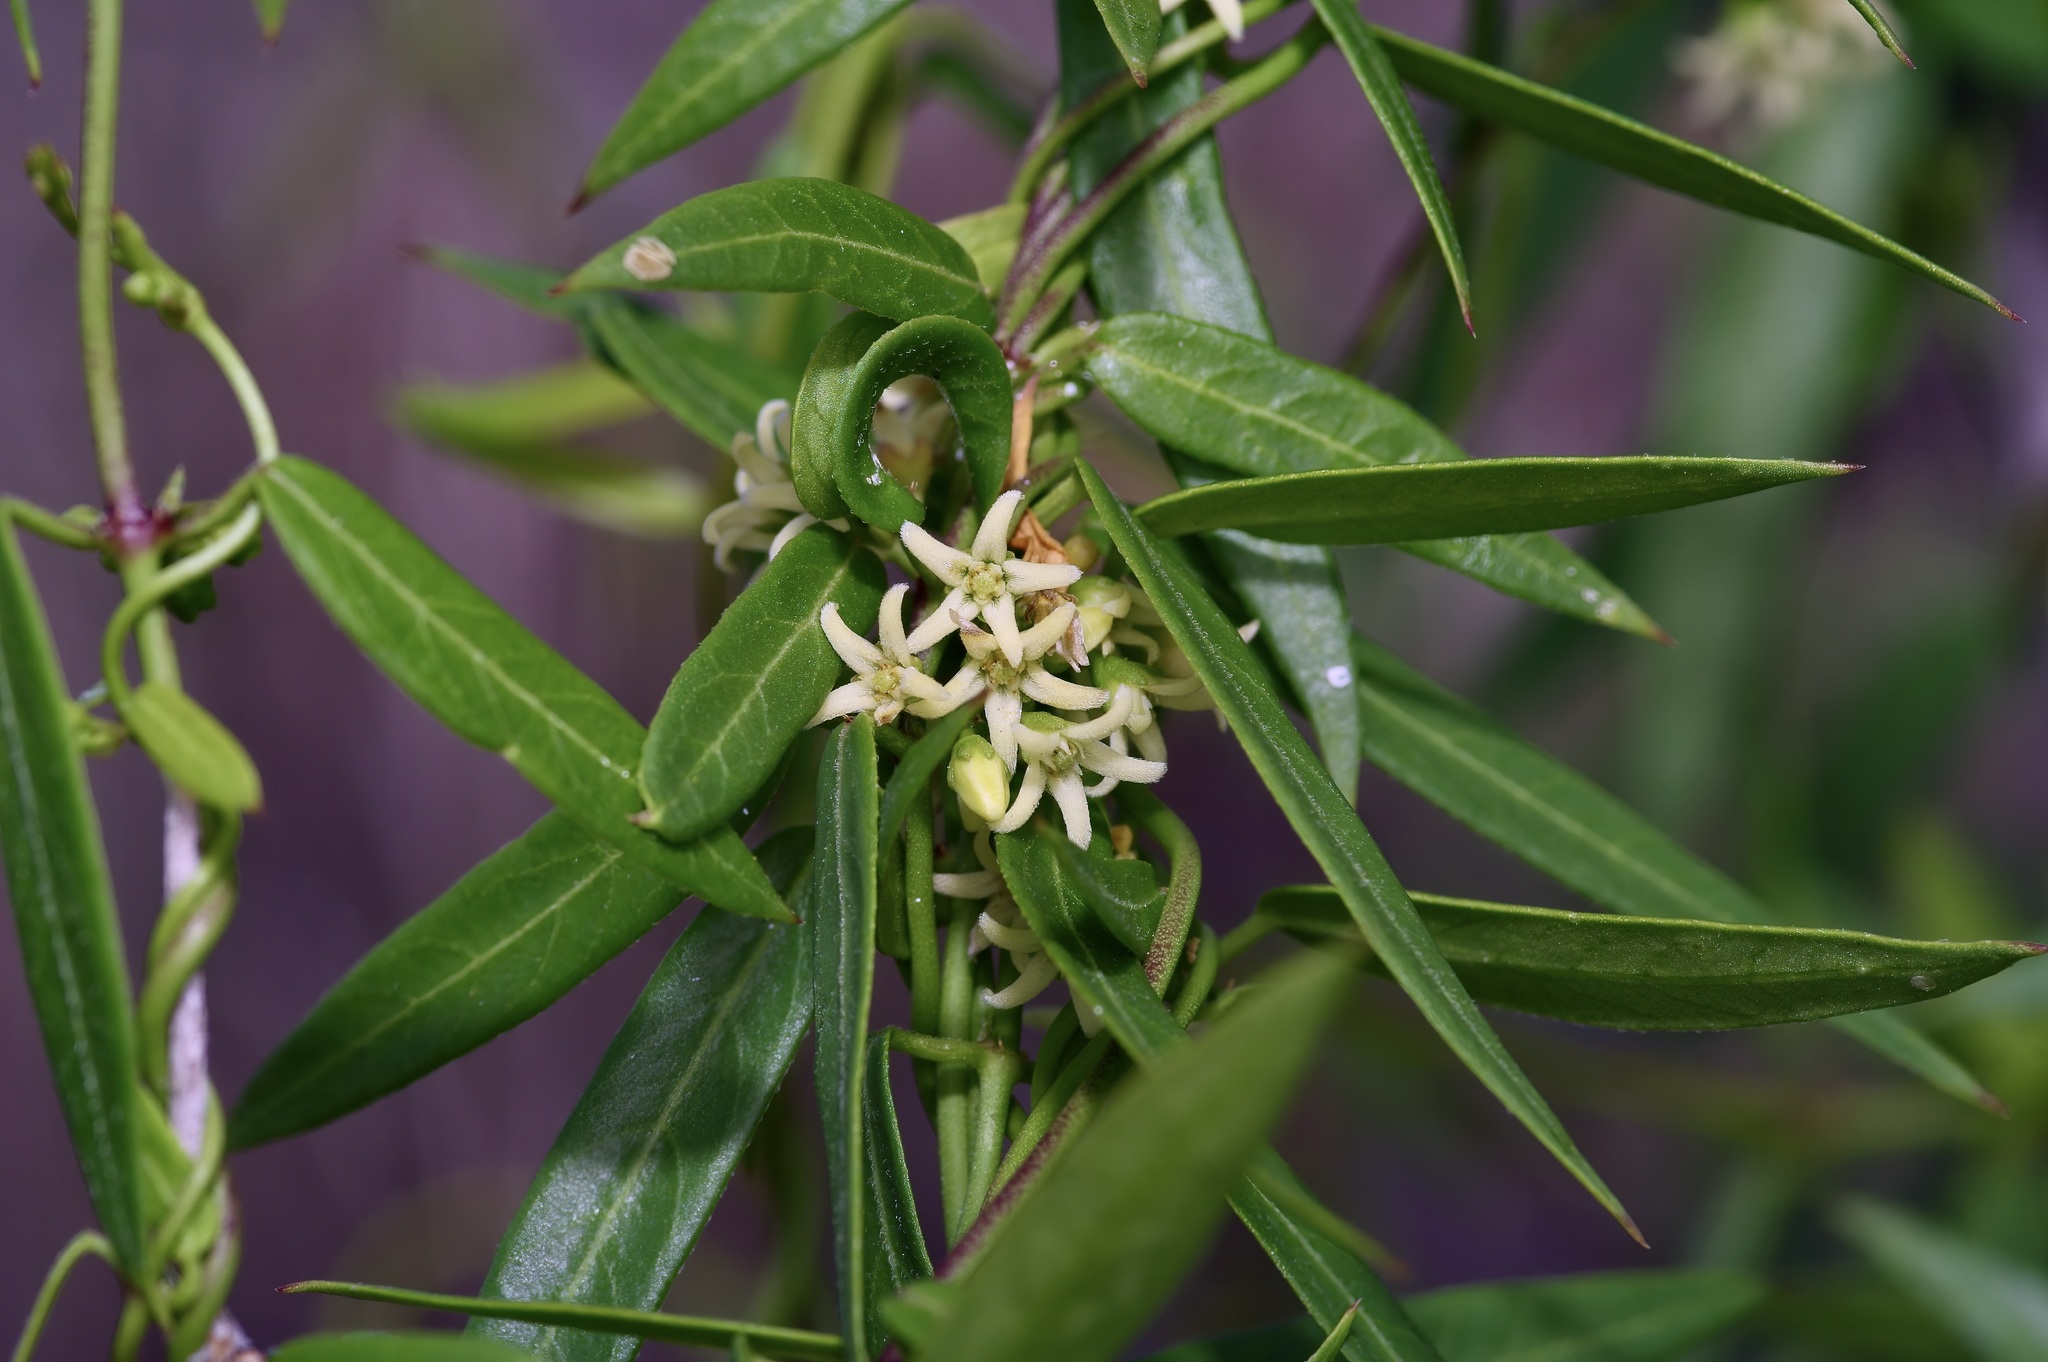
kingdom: Plantae
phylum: Tracheophyta
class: Magnoliopsida
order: Gentianales
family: Apocynaceae
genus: Metastelma
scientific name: Metastelma palmeri
